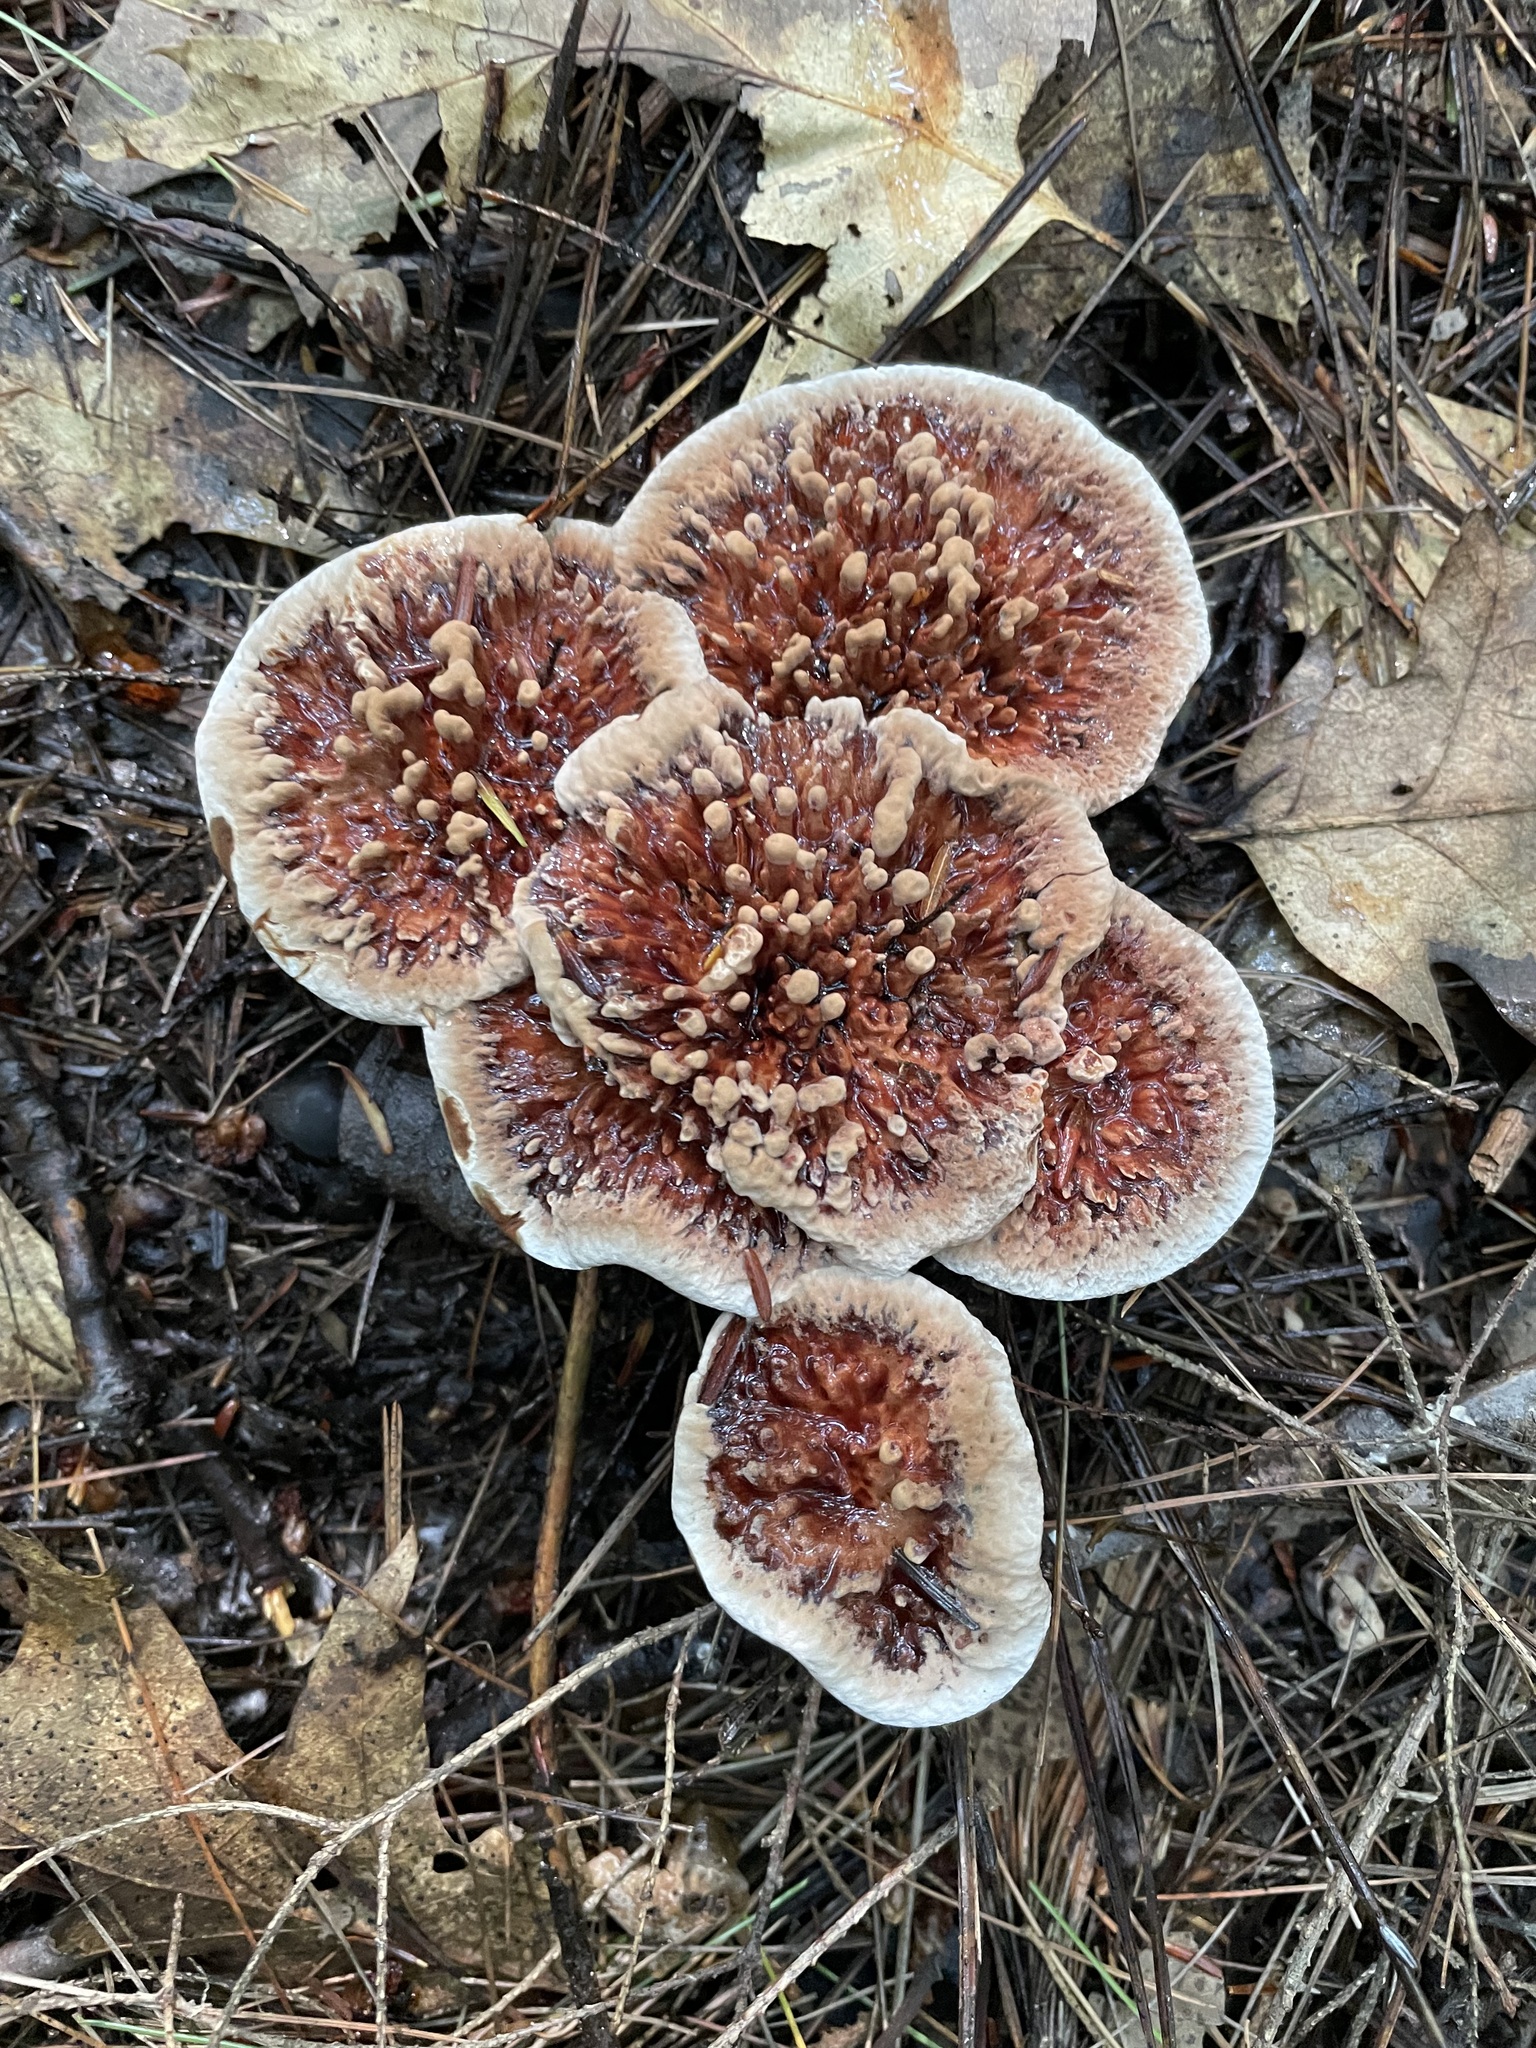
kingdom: Fungi
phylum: Basidiomycota
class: Agaricomycetes
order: Thelephorales
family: Bankeraceae
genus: Hydnellum
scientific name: Hydnellum scrobiculatum
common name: Ridged tooth
